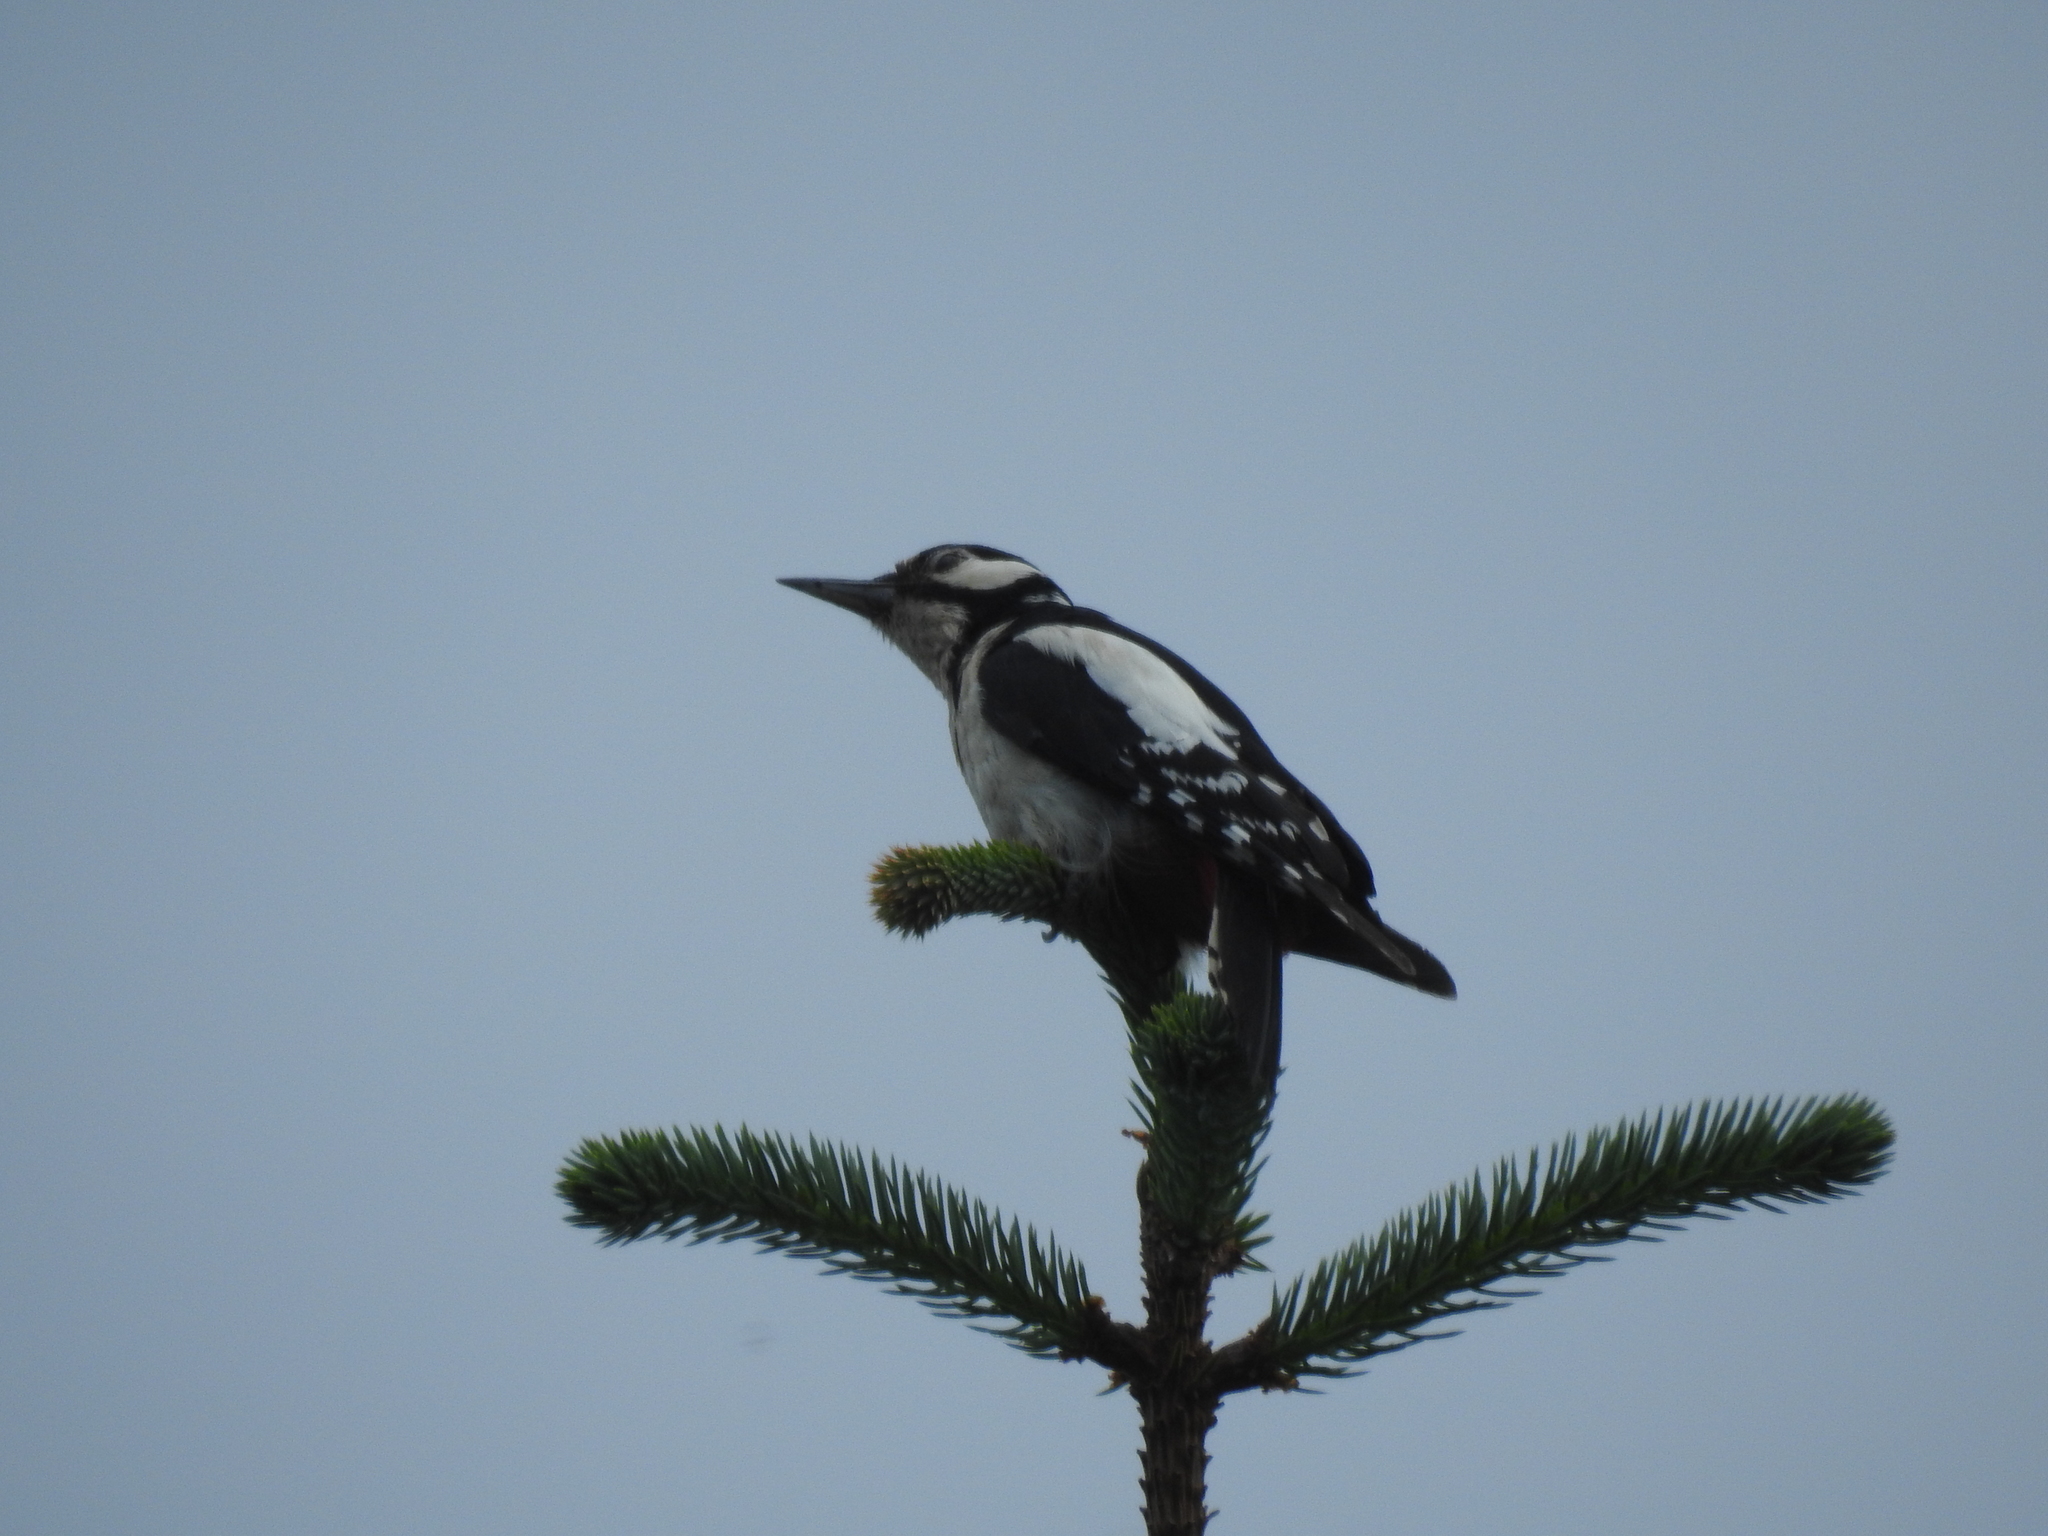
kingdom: Animalia
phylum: Chordata
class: Aves
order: Piciformes
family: Picidae
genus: Dendrocopos
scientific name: Dendrocopos major
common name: Great spotted woodpecker
